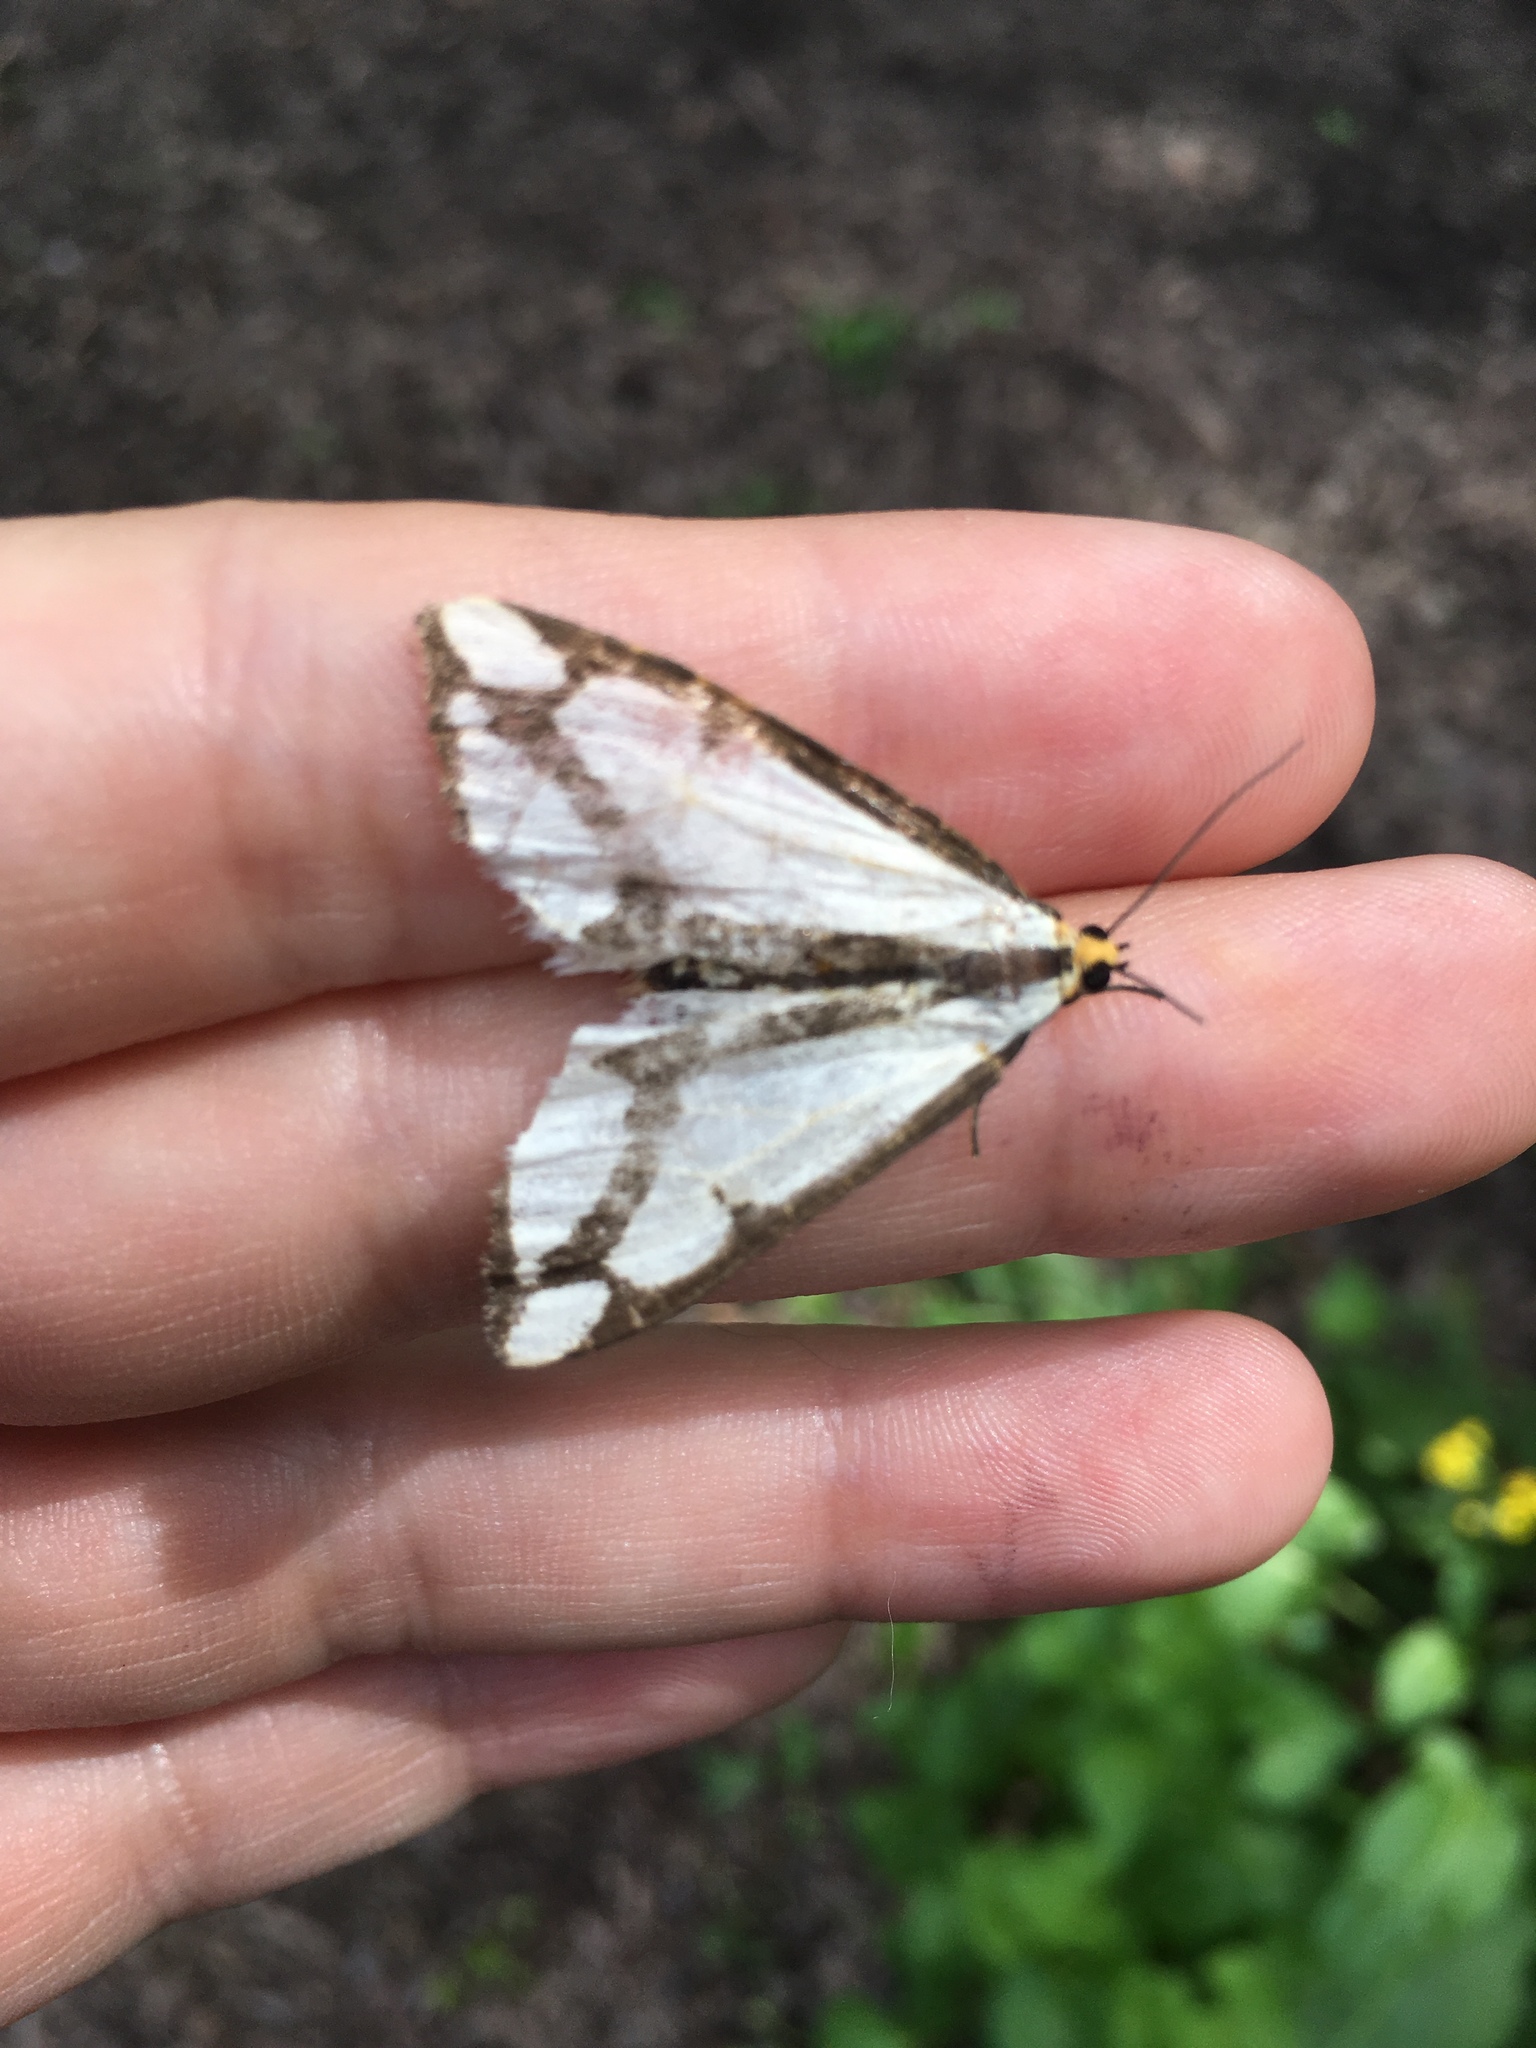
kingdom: Animalia
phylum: Arthropoda
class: Insecta
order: Lepidoptera
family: Erebidae
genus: Haploa
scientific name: Haploa lecontei
